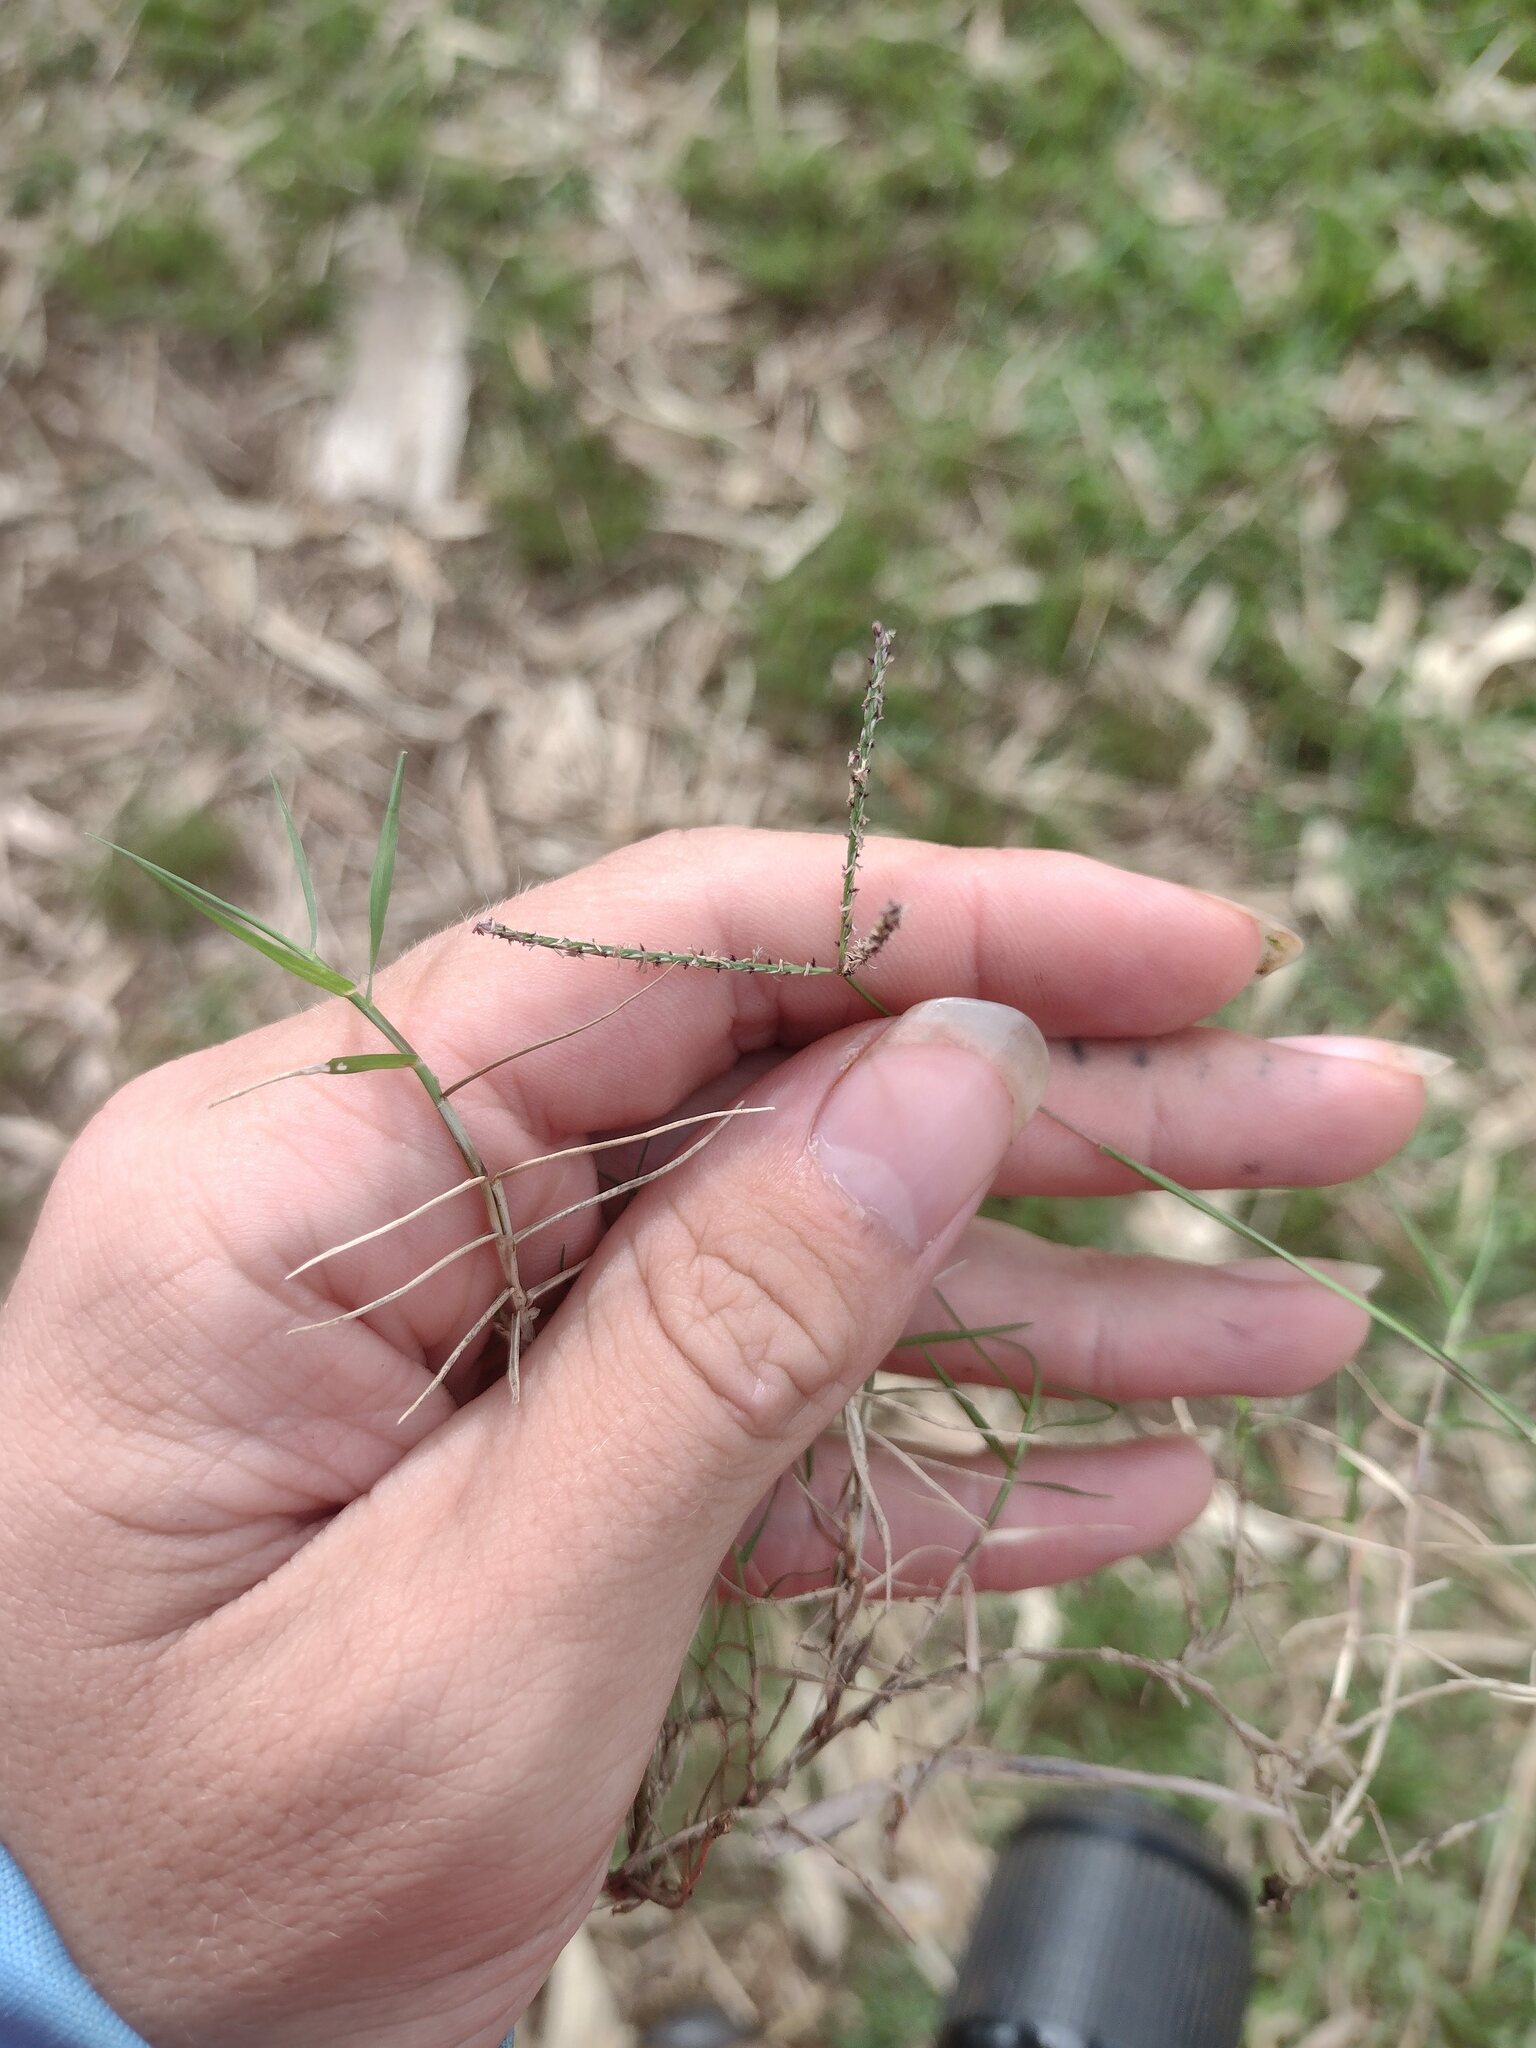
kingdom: Plantae
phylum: Tracheophyta
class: Liliopsida
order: Poales
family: Poaceae
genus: Cynodon
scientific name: Cynodon dactylon
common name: Bermuda grass
